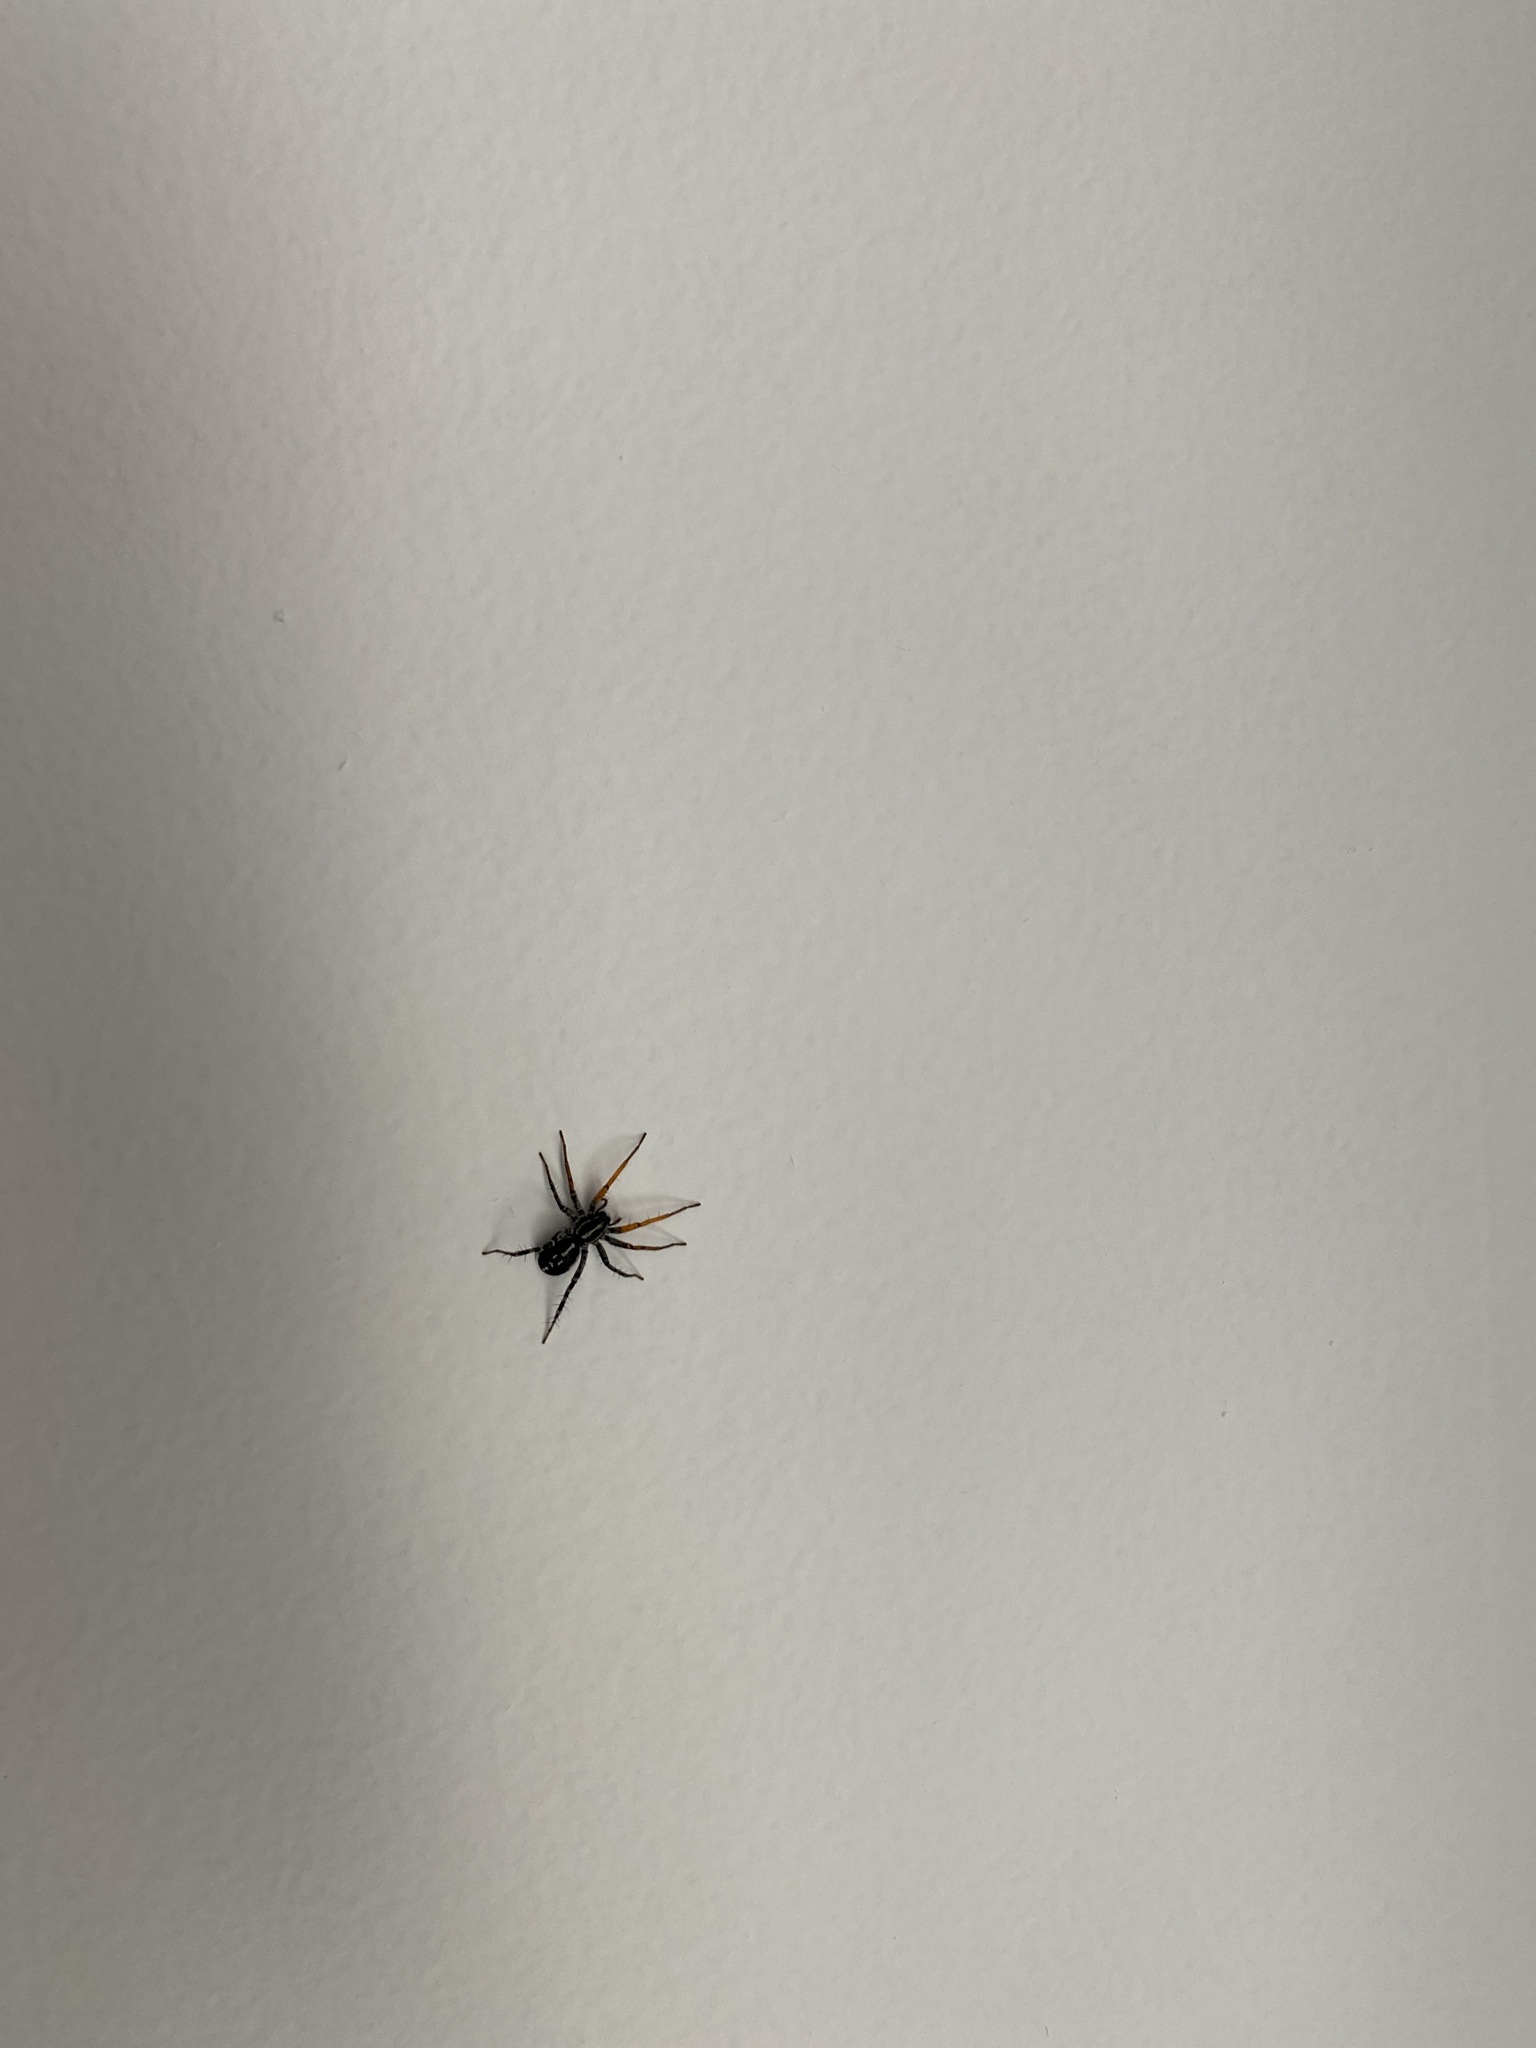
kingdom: Animalia
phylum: Arthropoda
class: Arachnida
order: Araneae
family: Corinnidae
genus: Nyssus
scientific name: Nyssus coloripes
